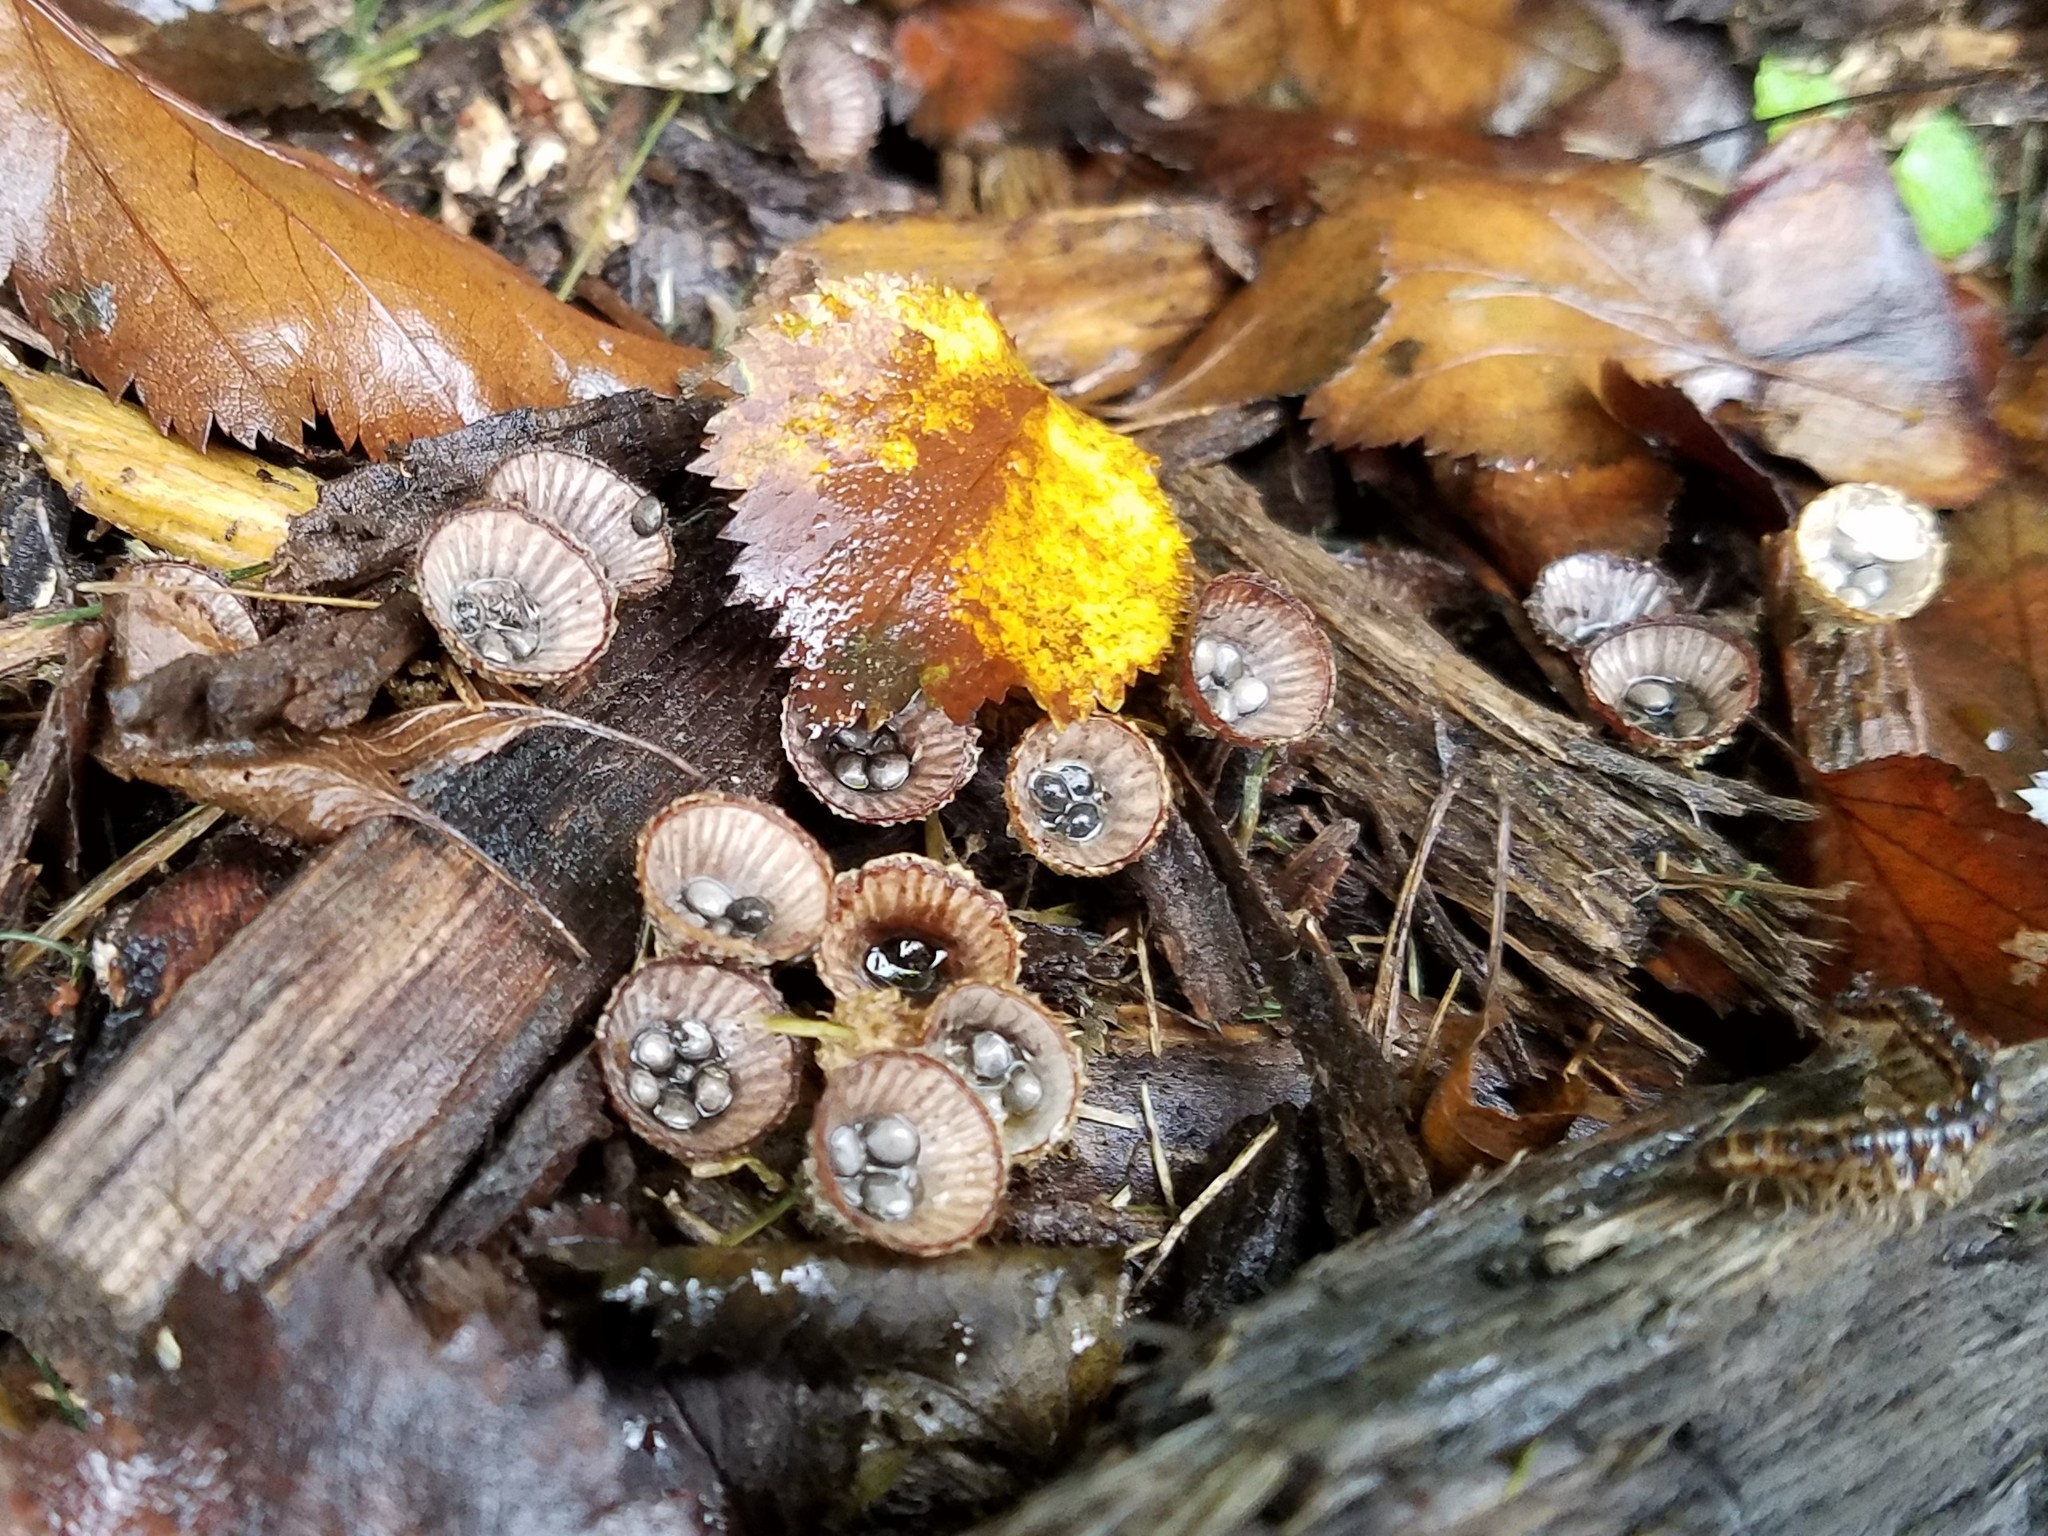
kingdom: Fungi
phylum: Basidiomycota
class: Agaricomycetes
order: Agaricales
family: Agaricaceae
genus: Cyathus
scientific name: Cyathus striatus
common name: Fluted bird's nest
